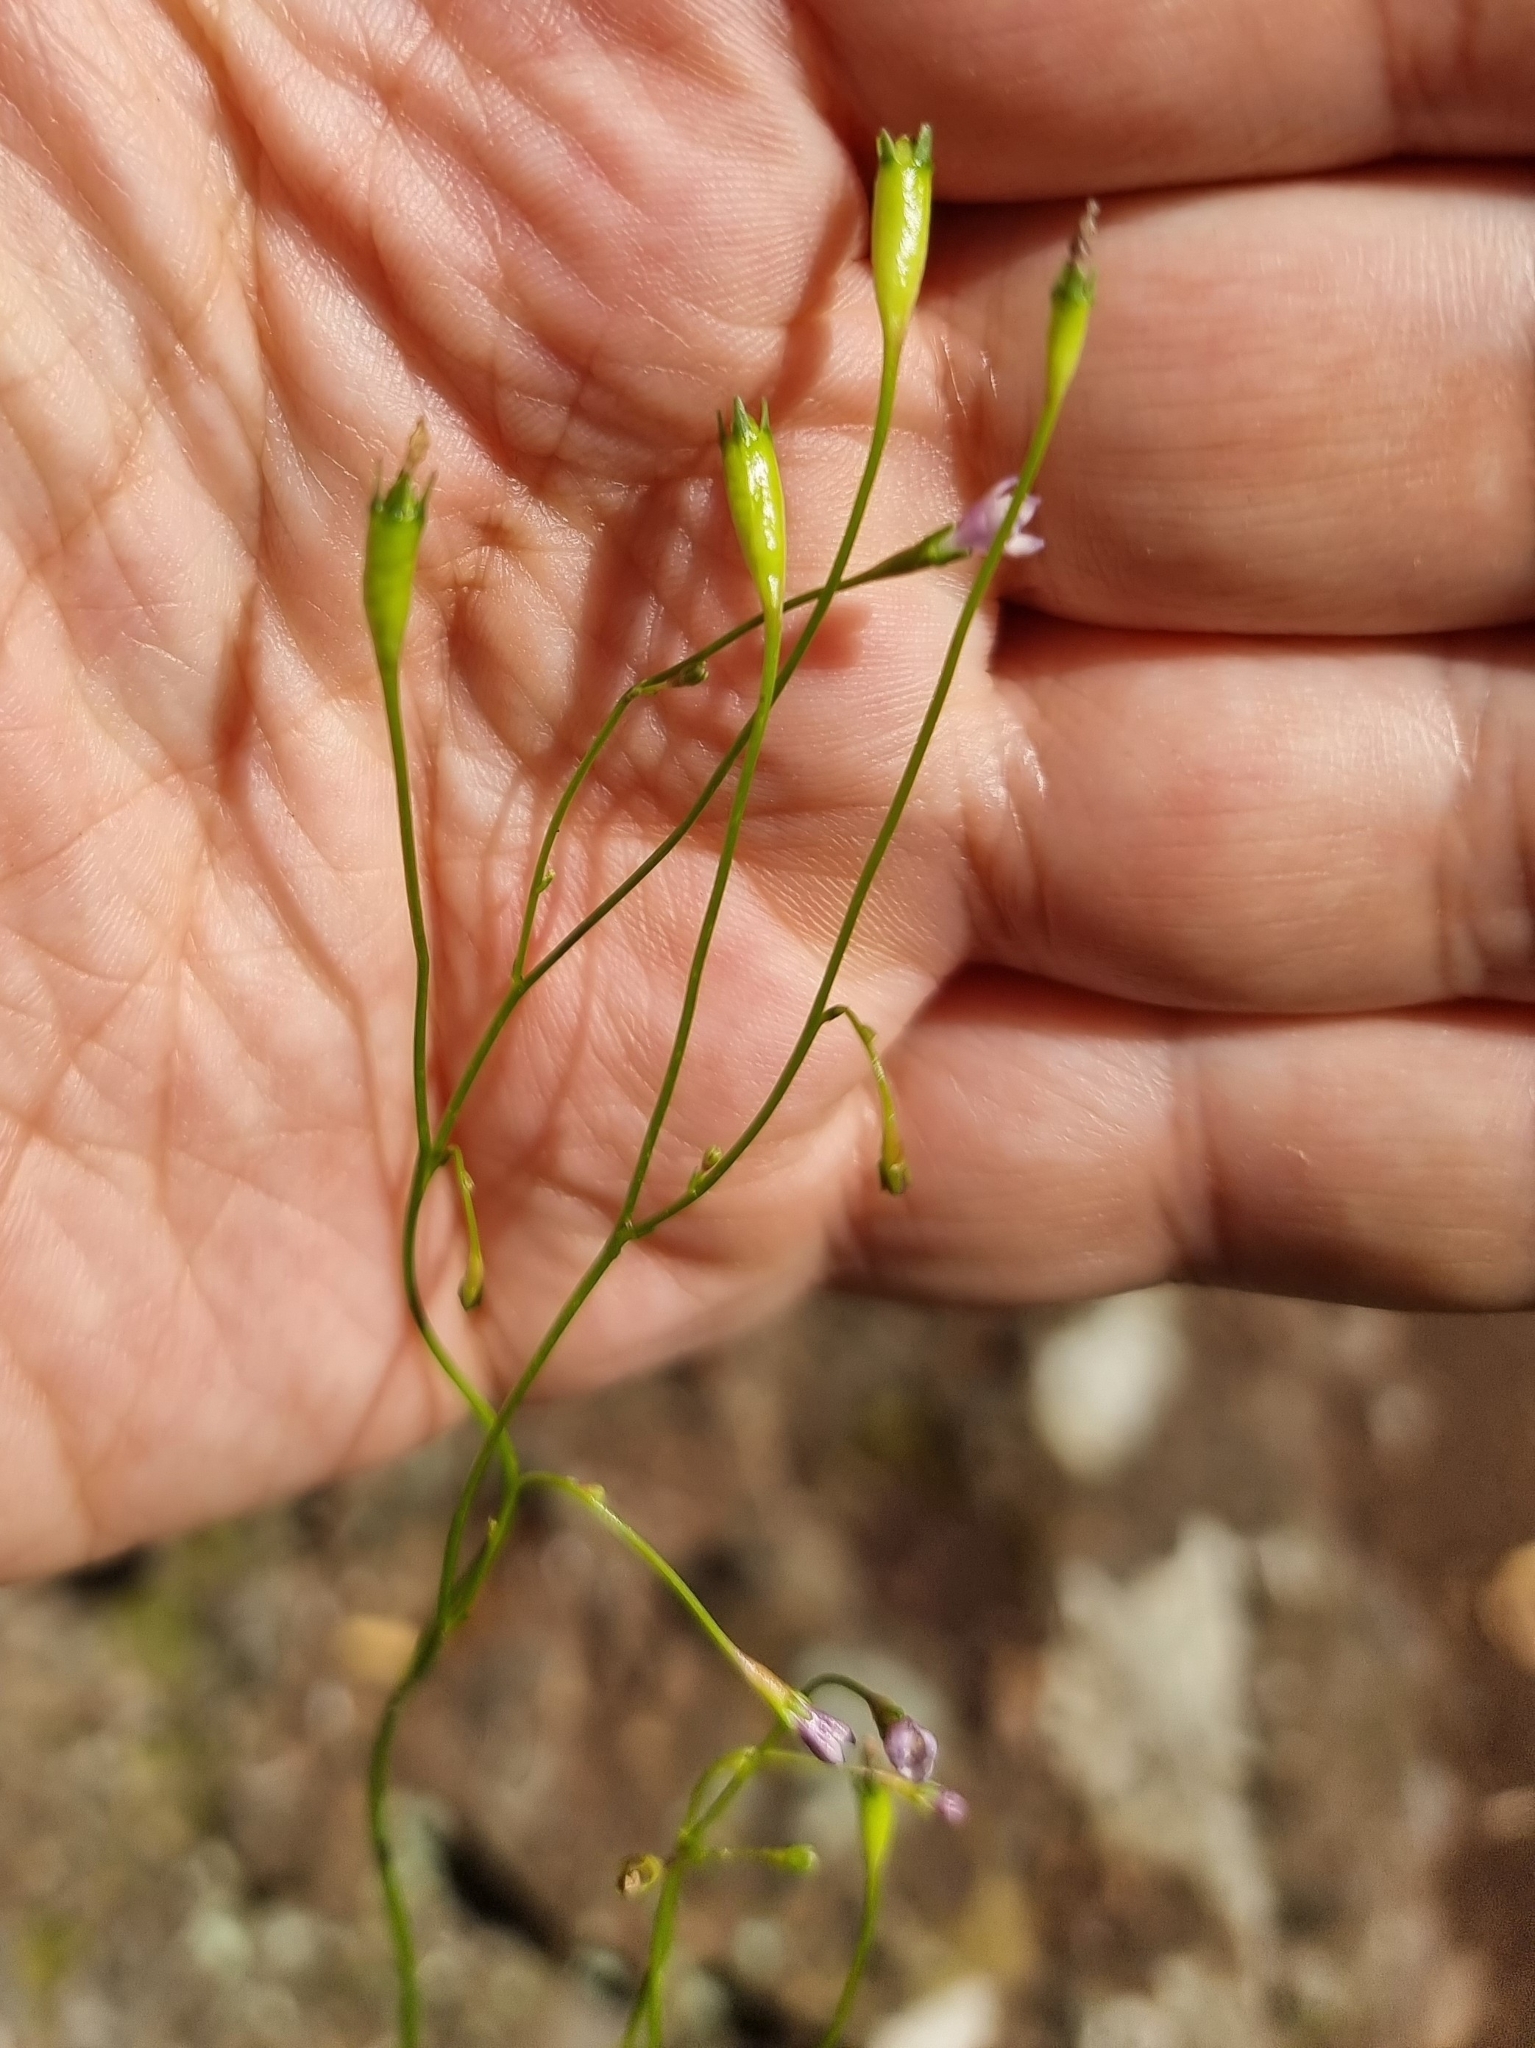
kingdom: Plantae
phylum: Tracheophyta
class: Magnoliopsida
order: Asterales
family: Campanulaceae
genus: Wahlenbergia
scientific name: Wahlenbergia lobelioides
